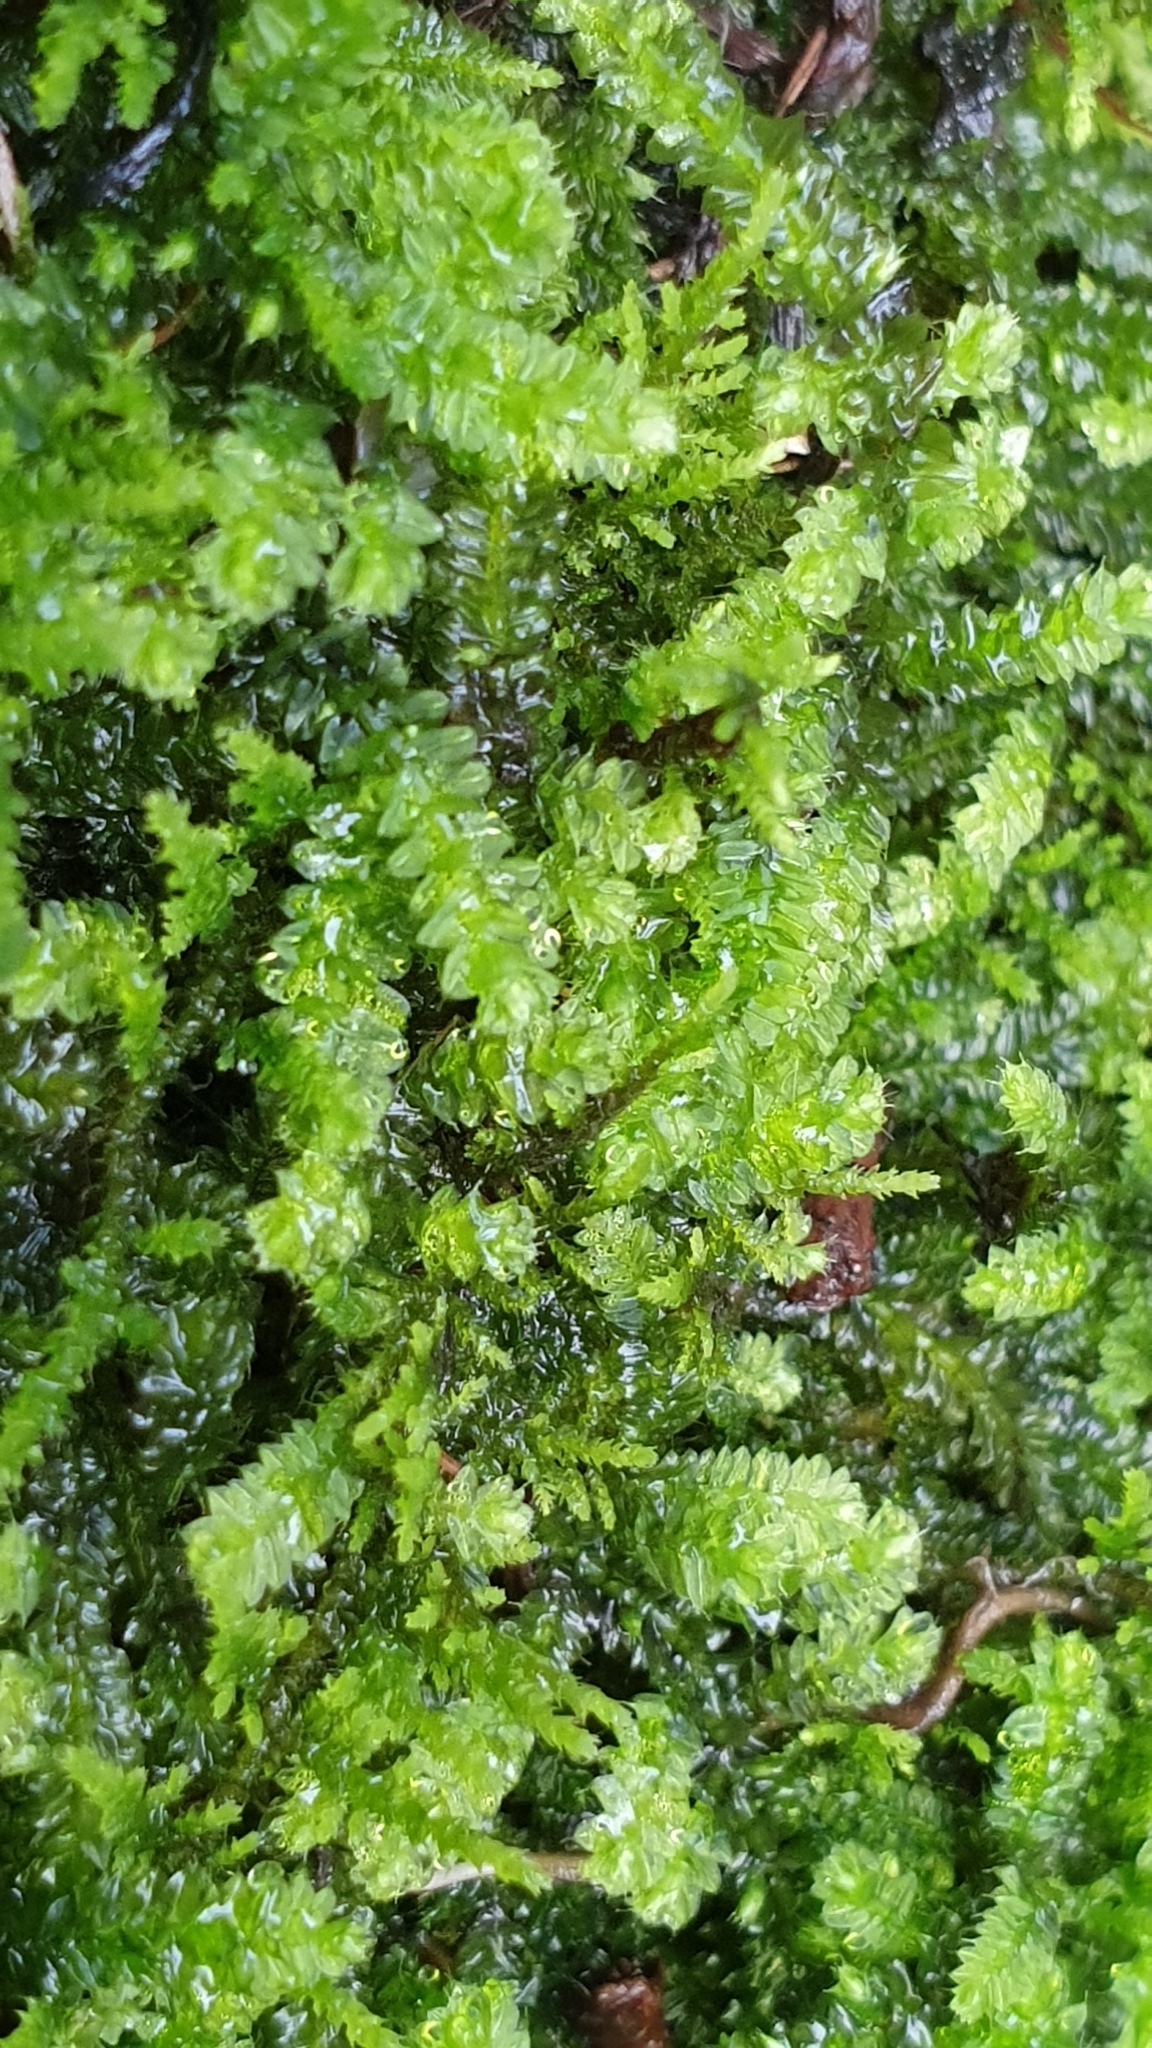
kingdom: Plantae
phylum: Bryophyta
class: Bryopsida
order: Hypnodendrales
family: Racopilaceae
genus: Racopilum
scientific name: Racopilum cuspidigerum
